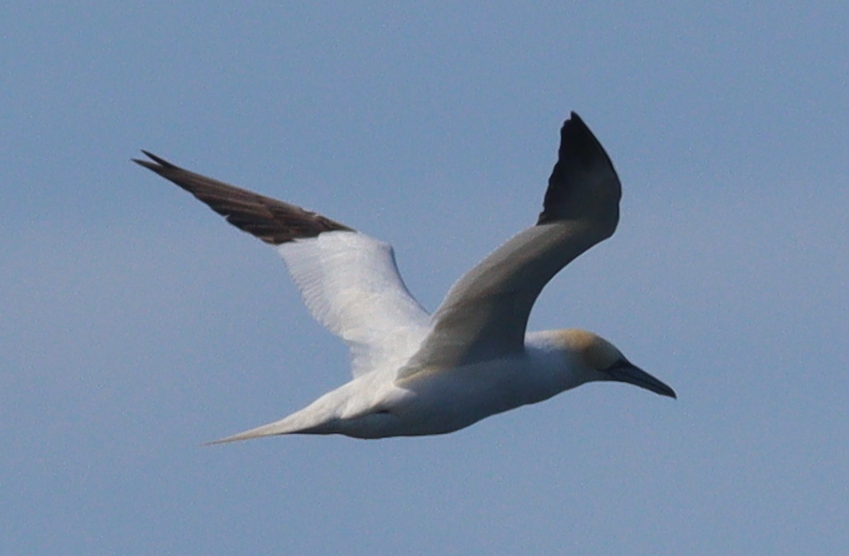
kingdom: Animalia
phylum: Chordata
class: Aves
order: Suliformes
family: Sulidae
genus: Morus
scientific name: Morus bassanus
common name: Northern gannet
